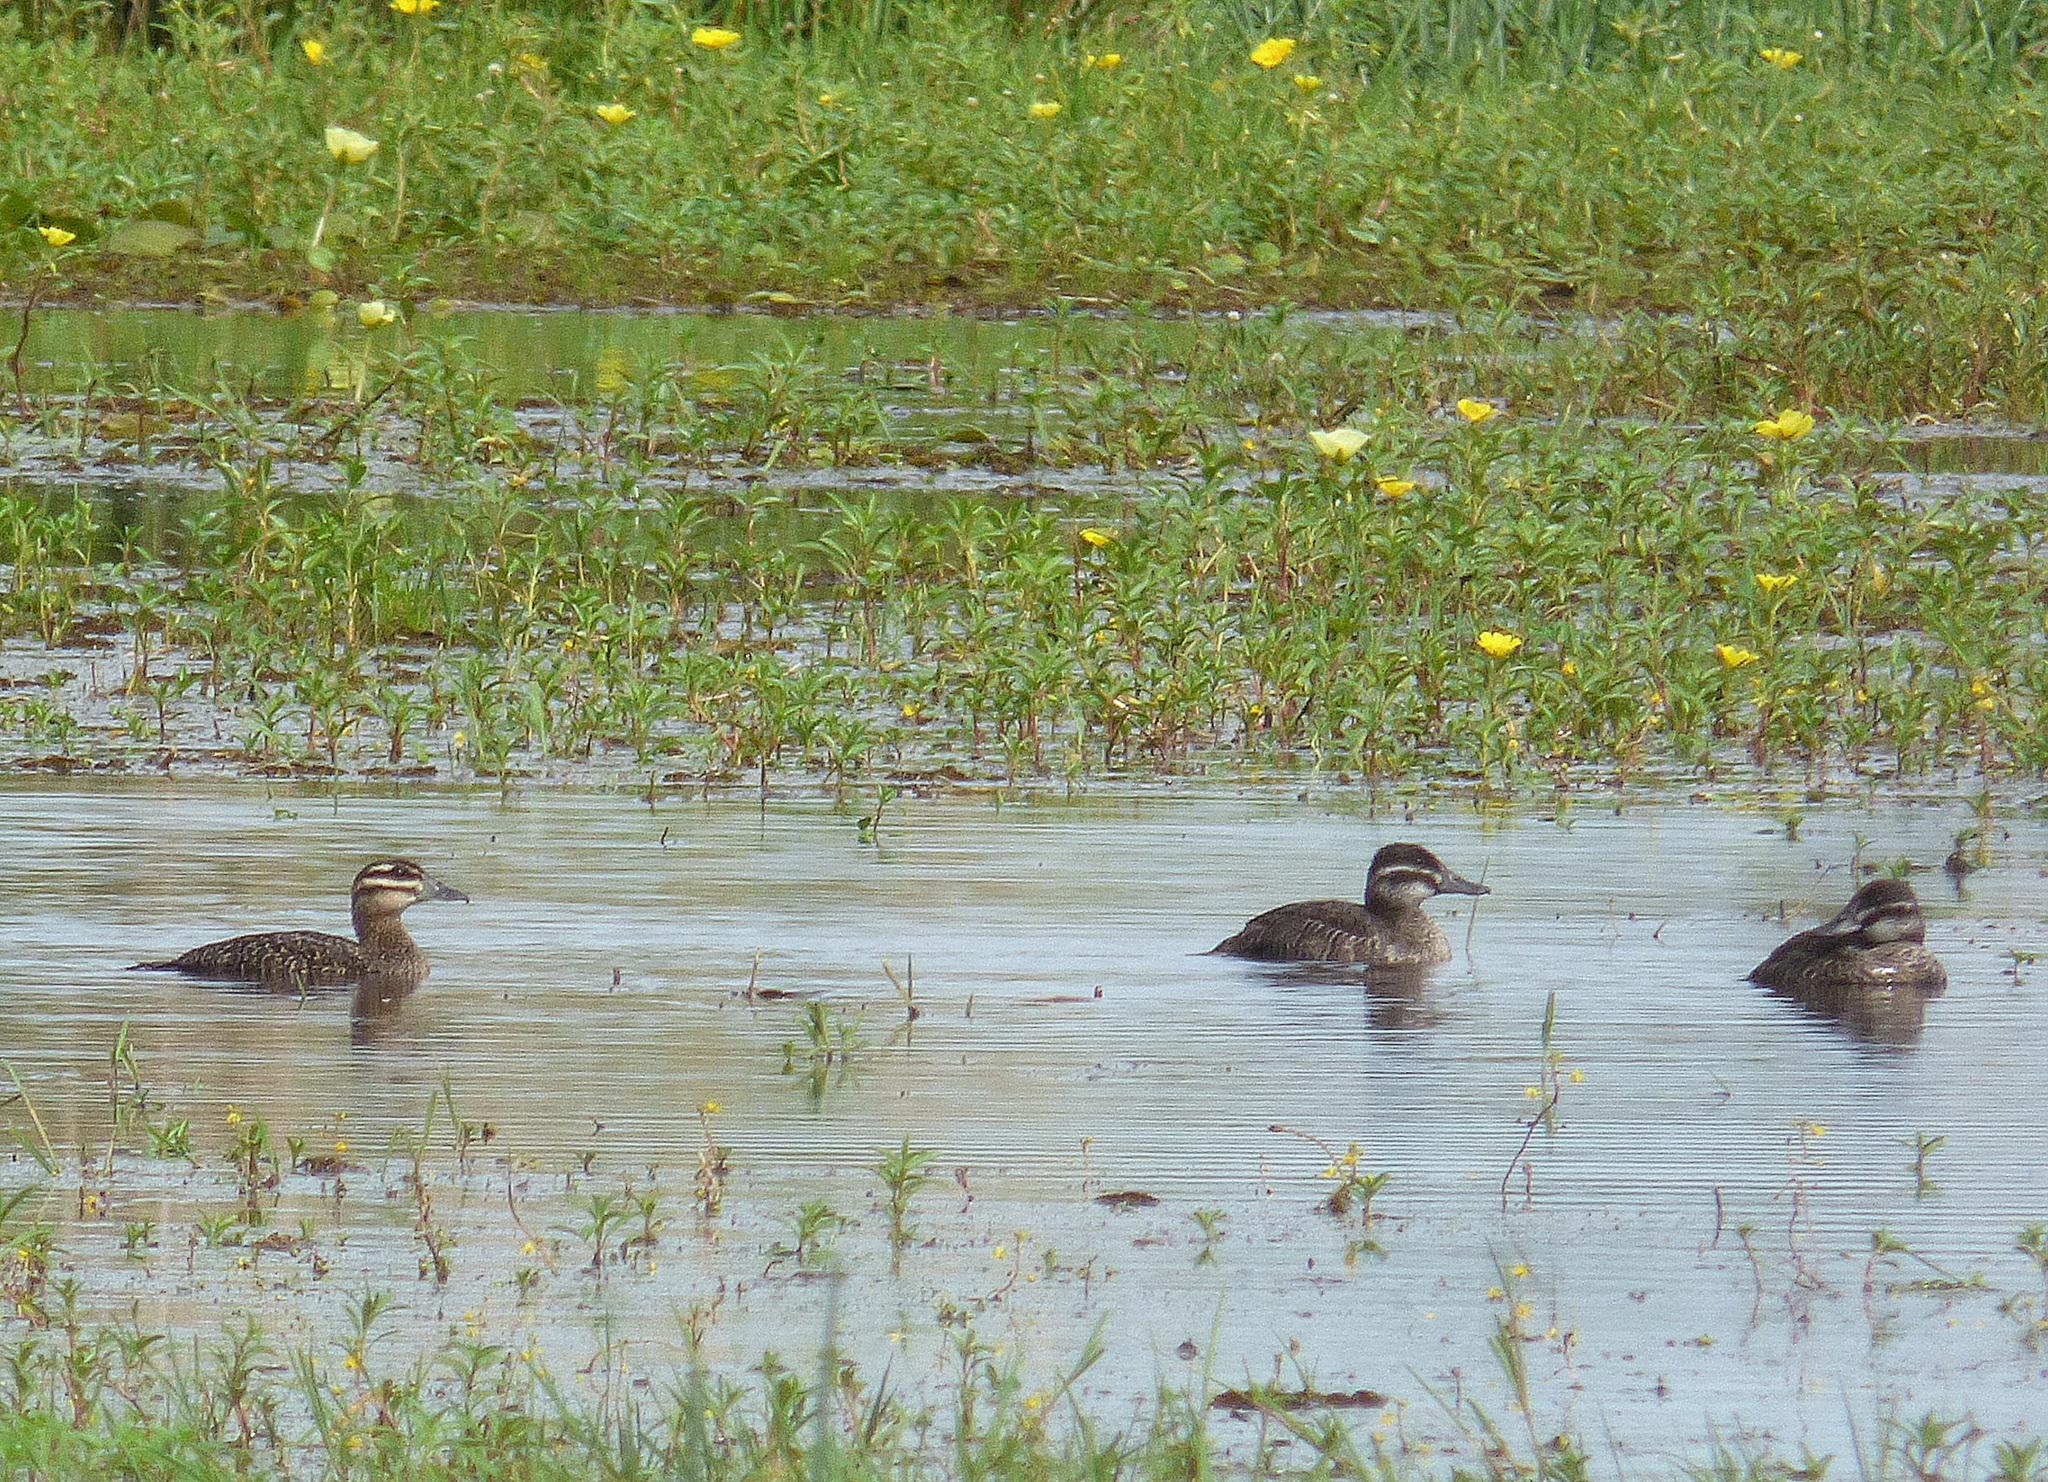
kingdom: Animalia
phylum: Chordata
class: Aves
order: Anseriformes
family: Anatidae
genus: Oxyura
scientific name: Oxyura vittata
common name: Lake duck
